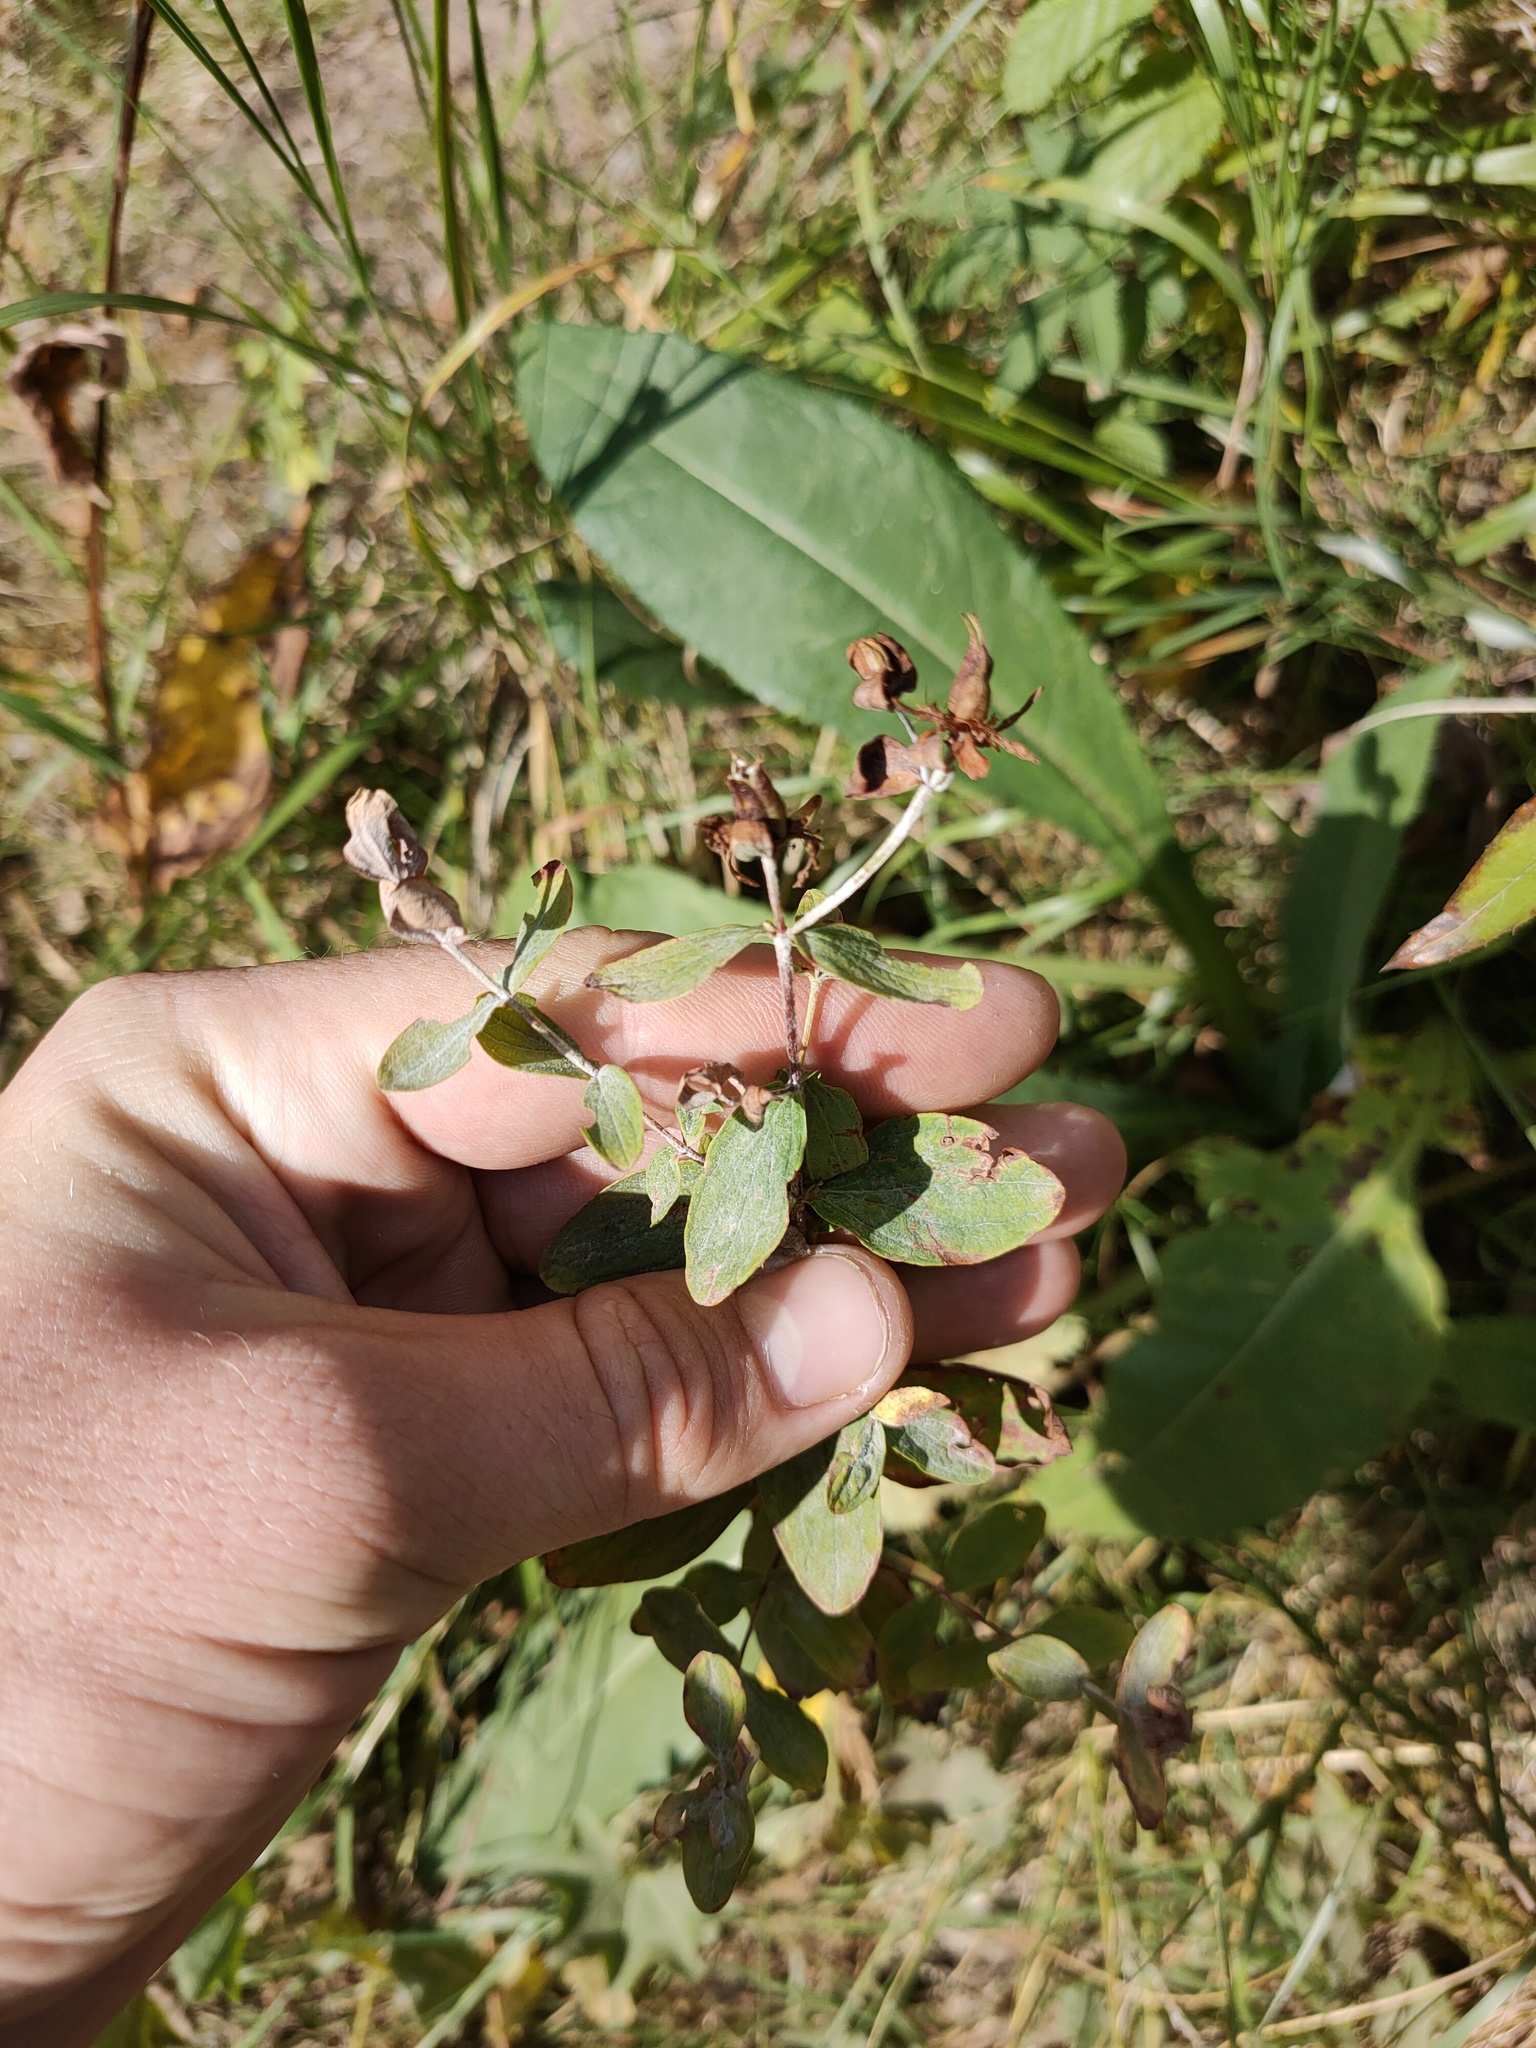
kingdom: Plantae
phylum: Tracheophyta
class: Magnoliopsida
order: Malpighiales
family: Hypericaceae
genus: Hypericum
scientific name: Hypericum maculatum
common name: Imperforate st. john's-wort
